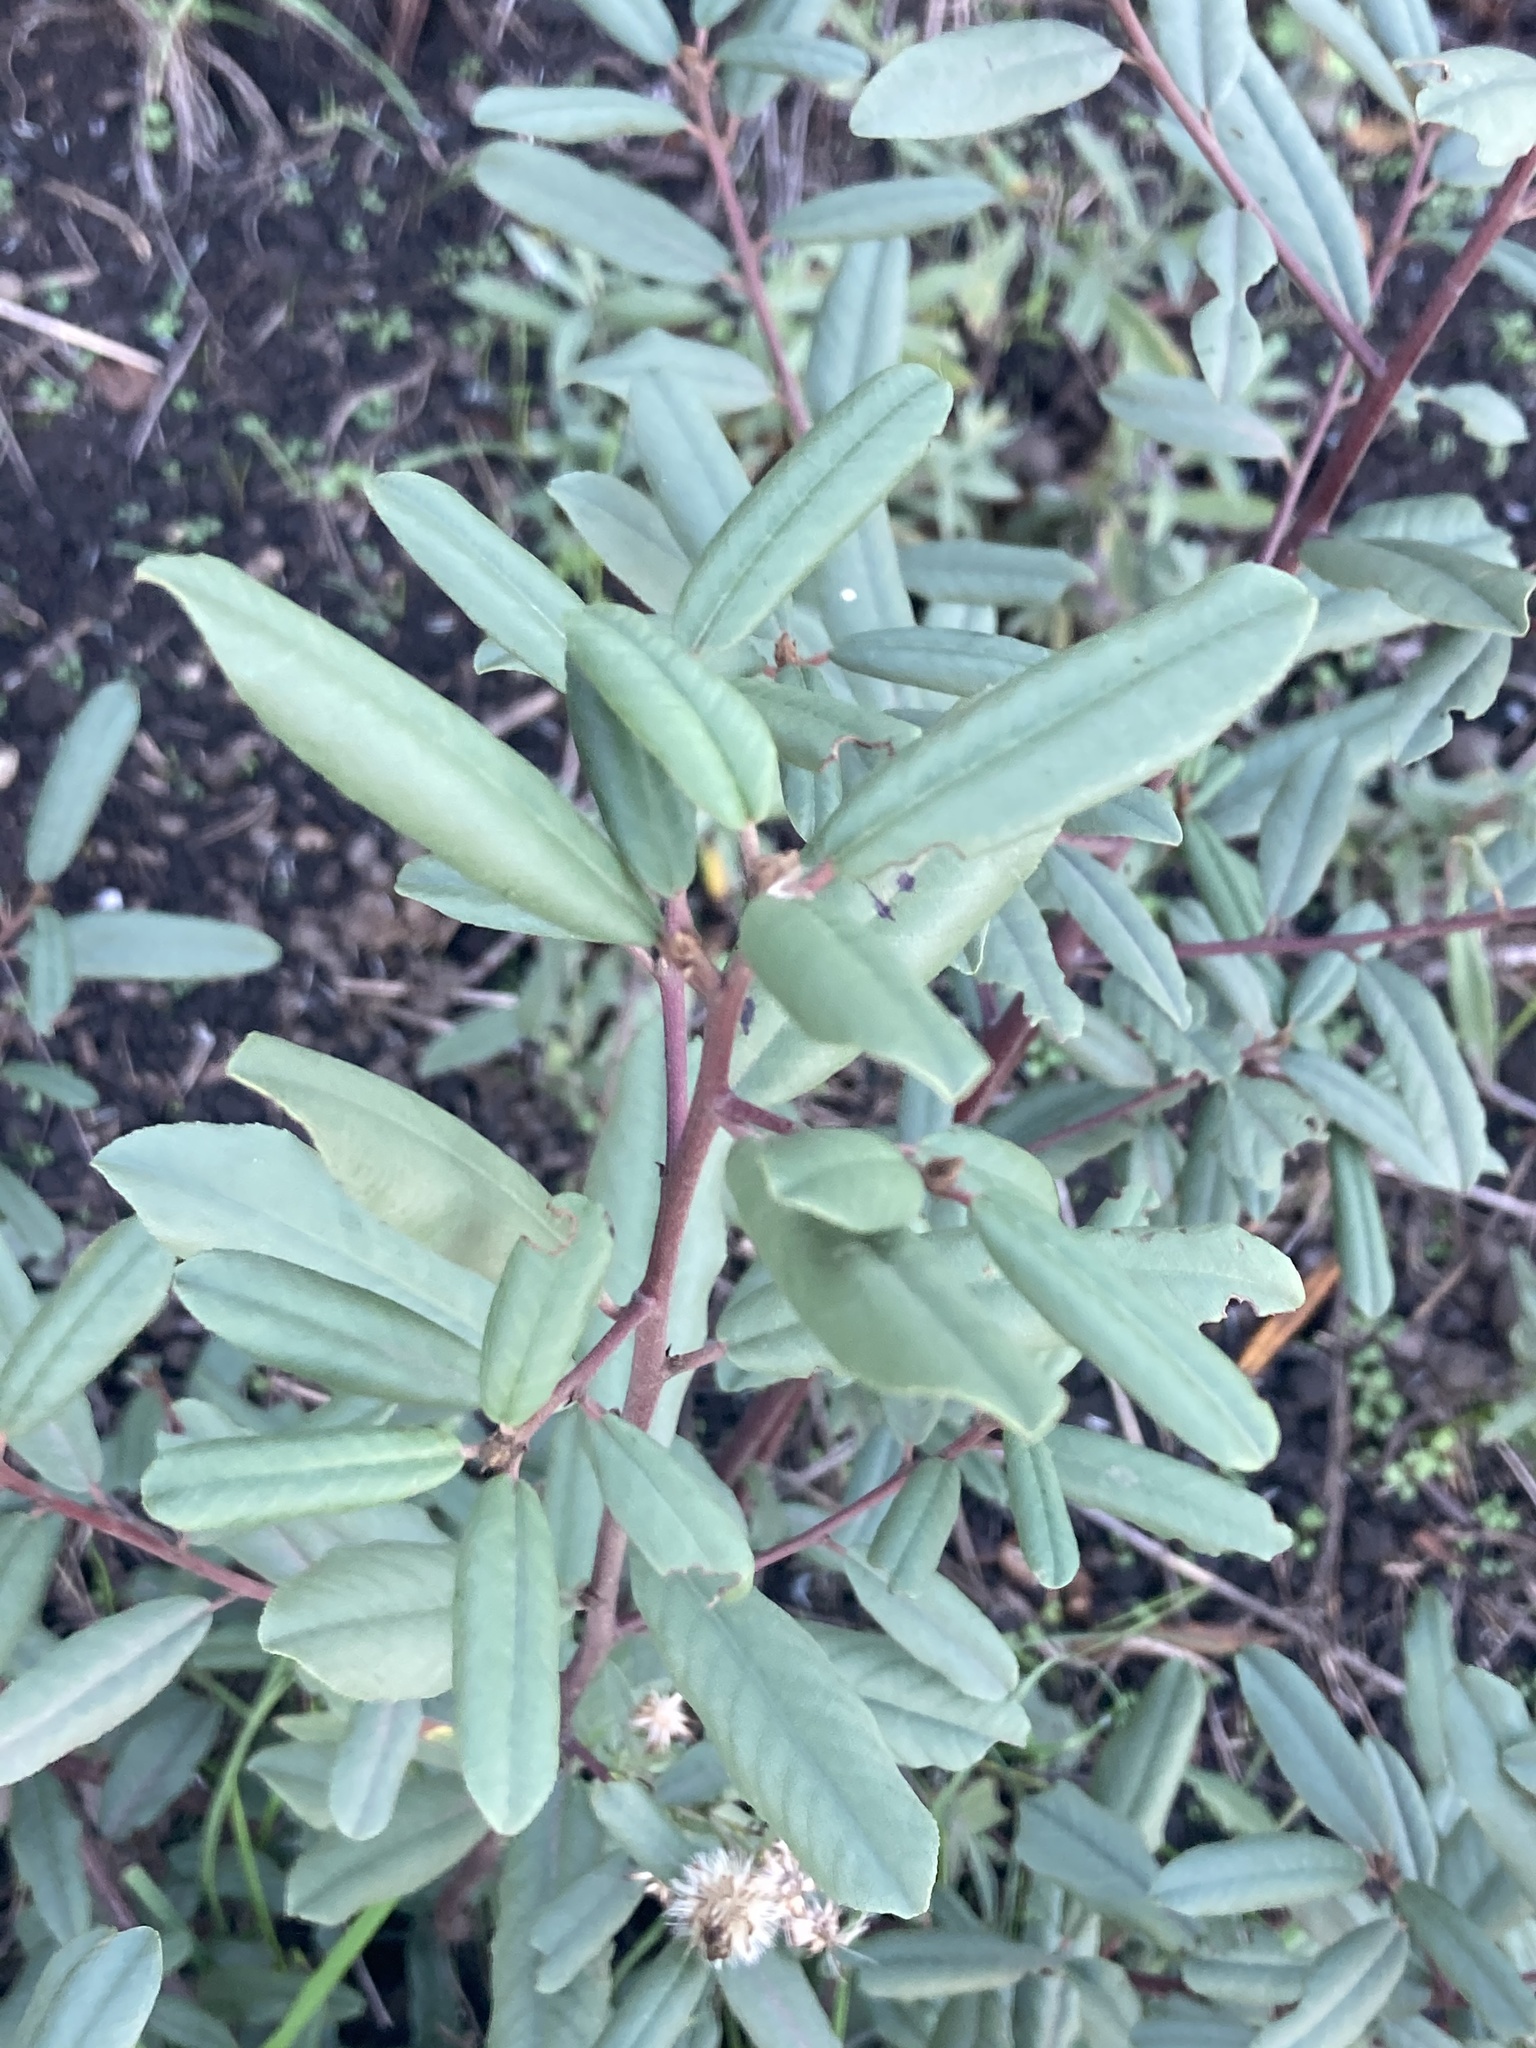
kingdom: Plantae
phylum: Tracheophyta
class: Magnoliopsida
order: Rosales
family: Rhamnaceae
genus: Frangula
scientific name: Frangula californica
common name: California buckthorn
